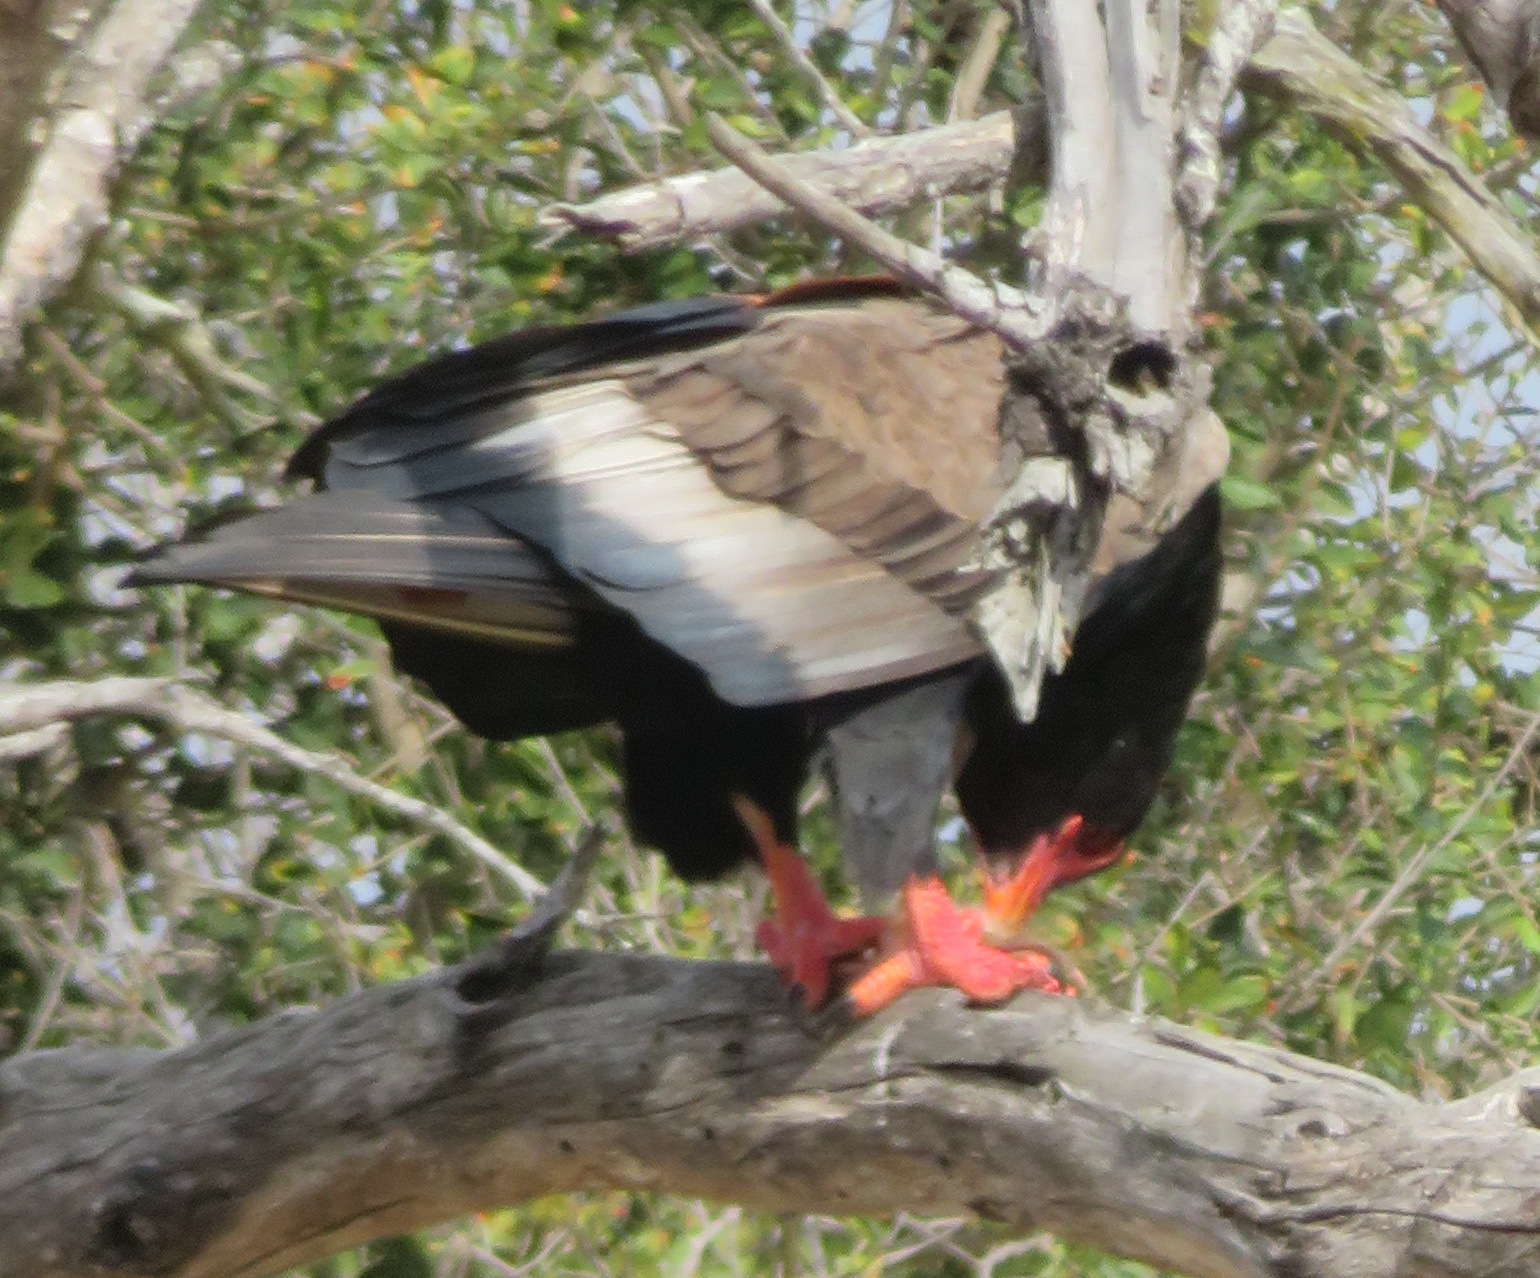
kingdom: Animalia
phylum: Chordata
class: Aves
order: Accipitriformes
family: Accipitridae
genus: Terathopius
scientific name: Terathopius ecaudatus
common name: Bateleur
